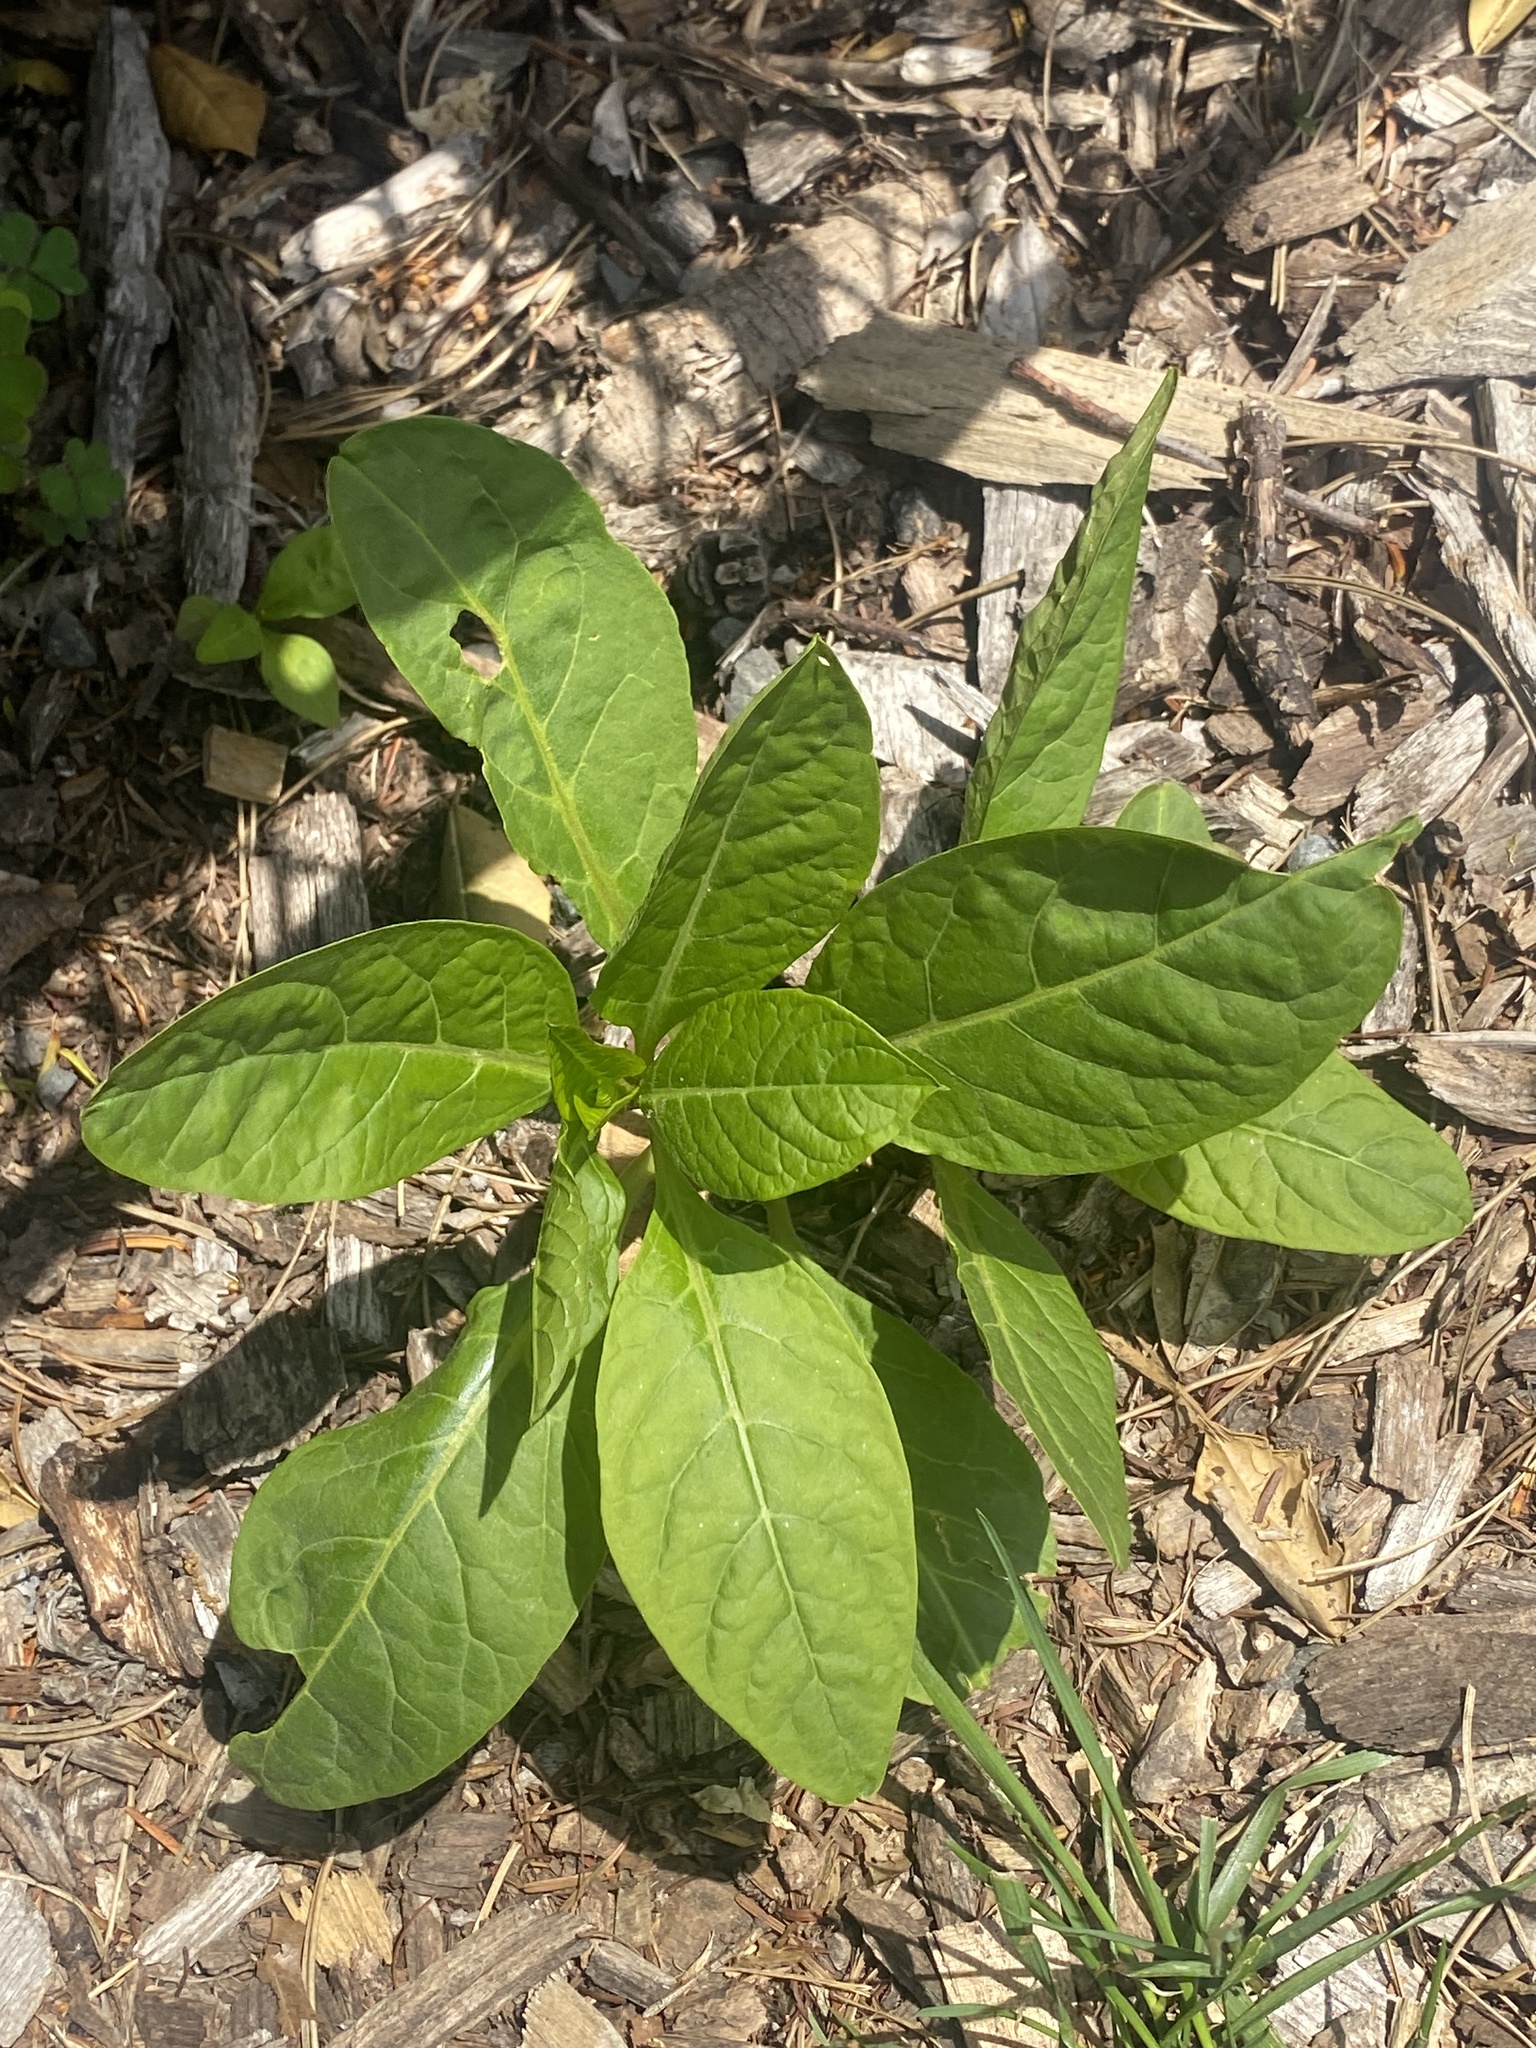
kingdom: Plantae
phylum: Tracheophyta
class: Magnoliopsida
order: Caryophyllales
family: Phytolaccaceae
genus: Phytolacca
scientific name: Phytolacca americana
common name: American pokeweed
